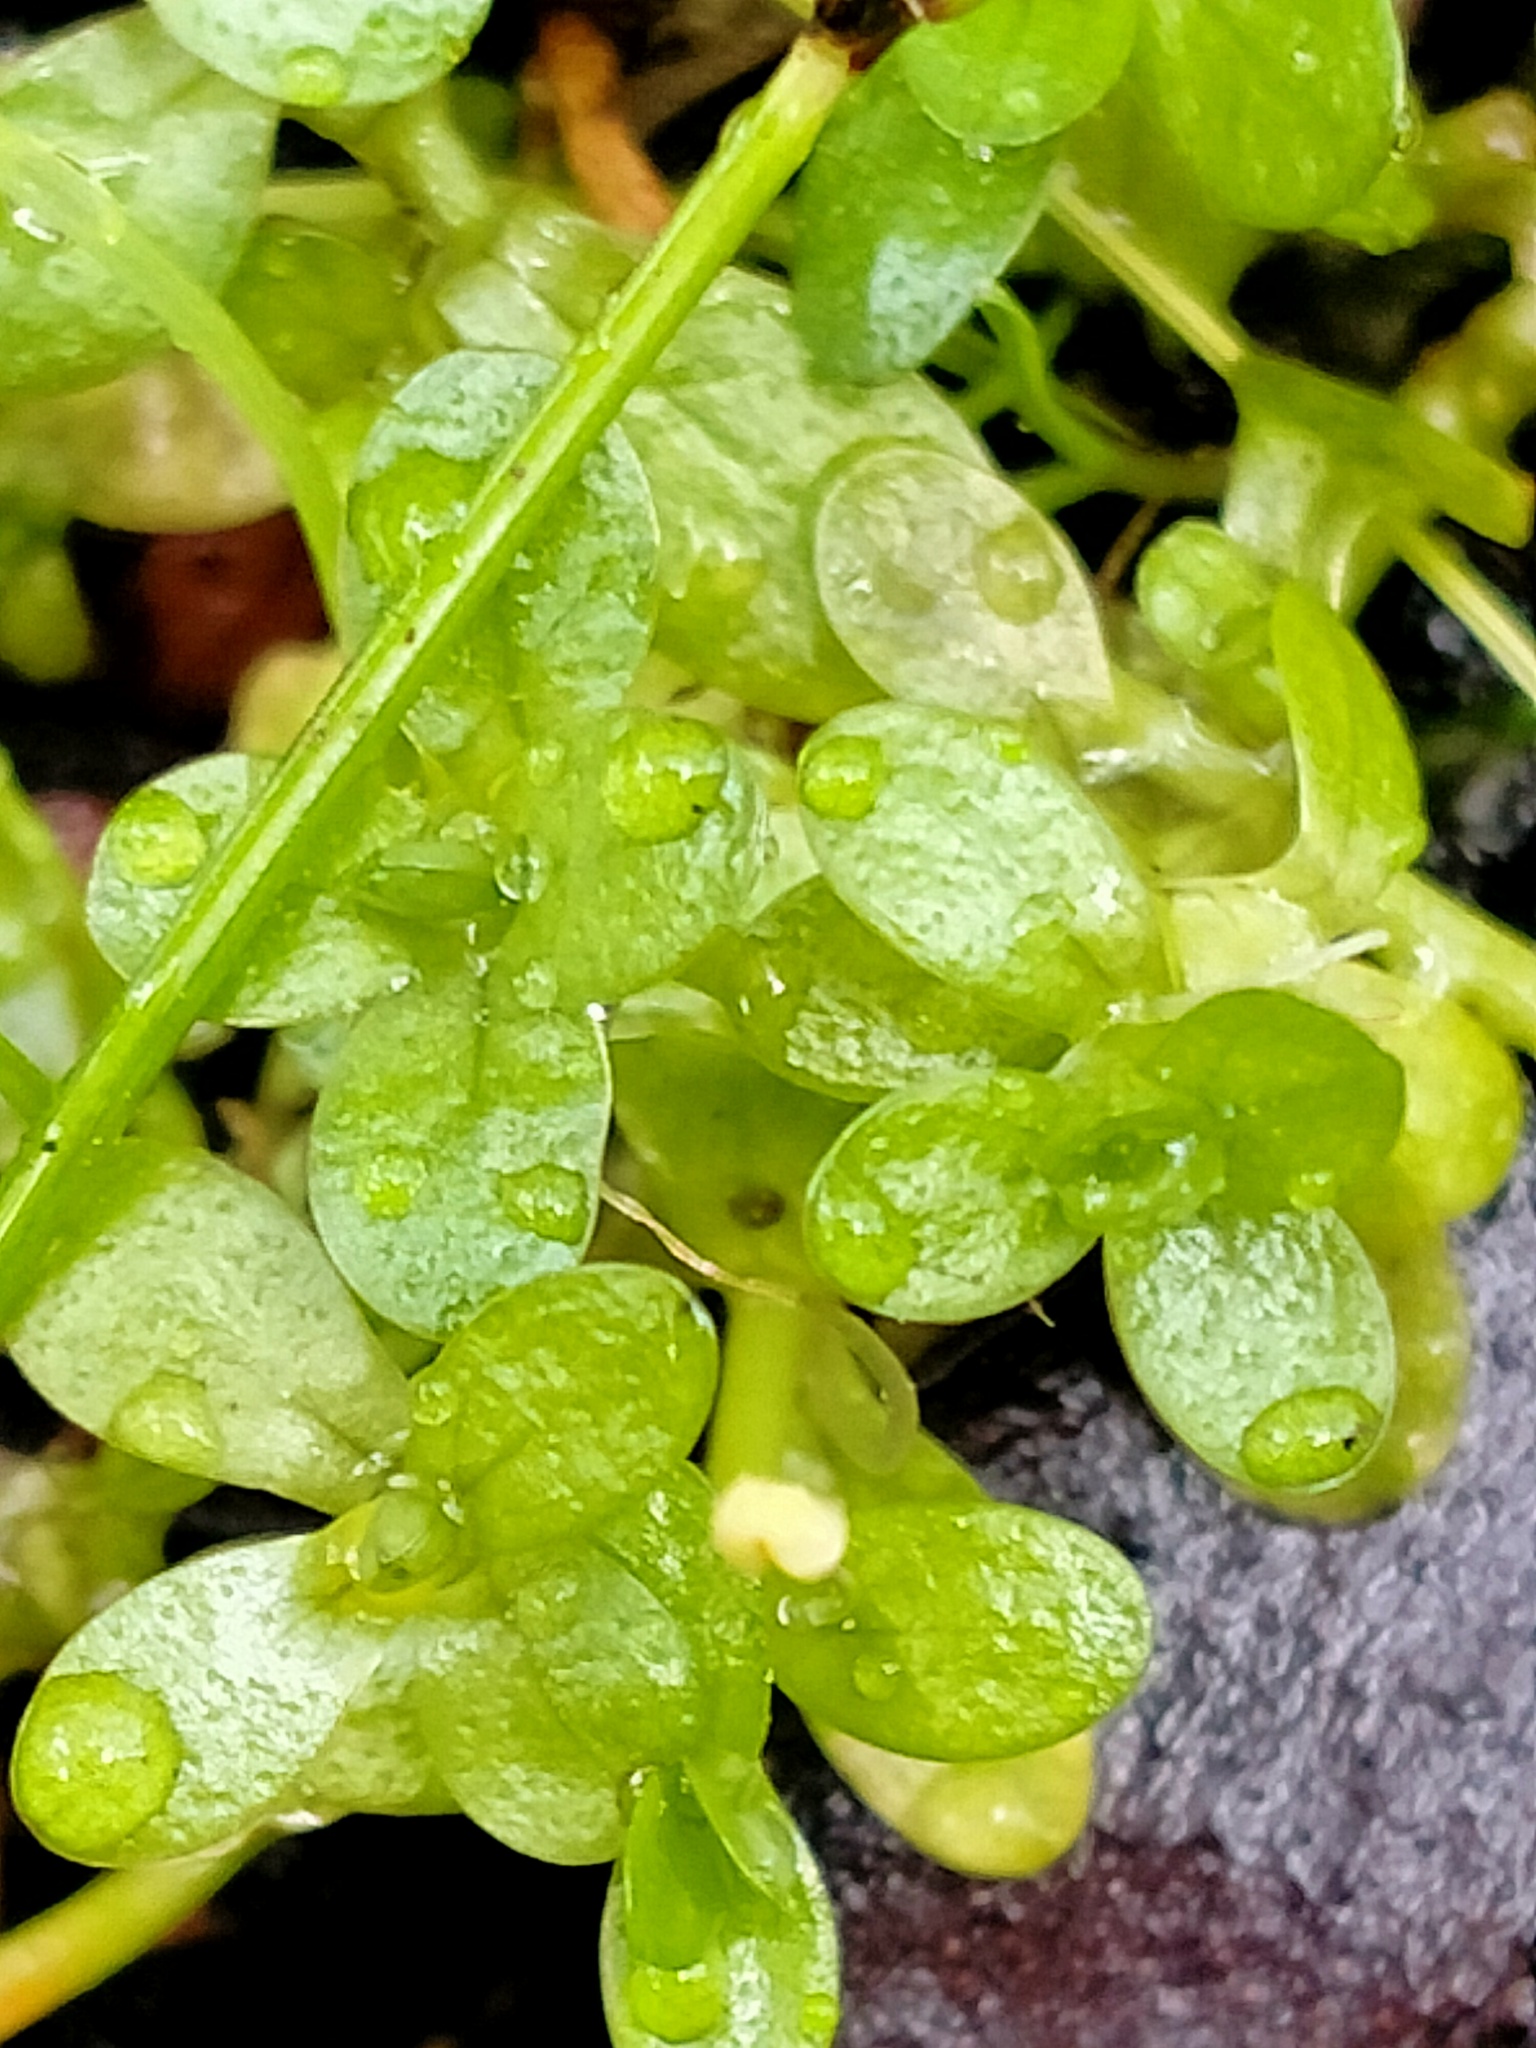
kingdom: Plantae
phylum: Tracheophyta
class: Magnoliopsida
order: Lamiales
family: Plantaginaceae
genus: Callitriche
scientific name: Callitriche aucklandica
